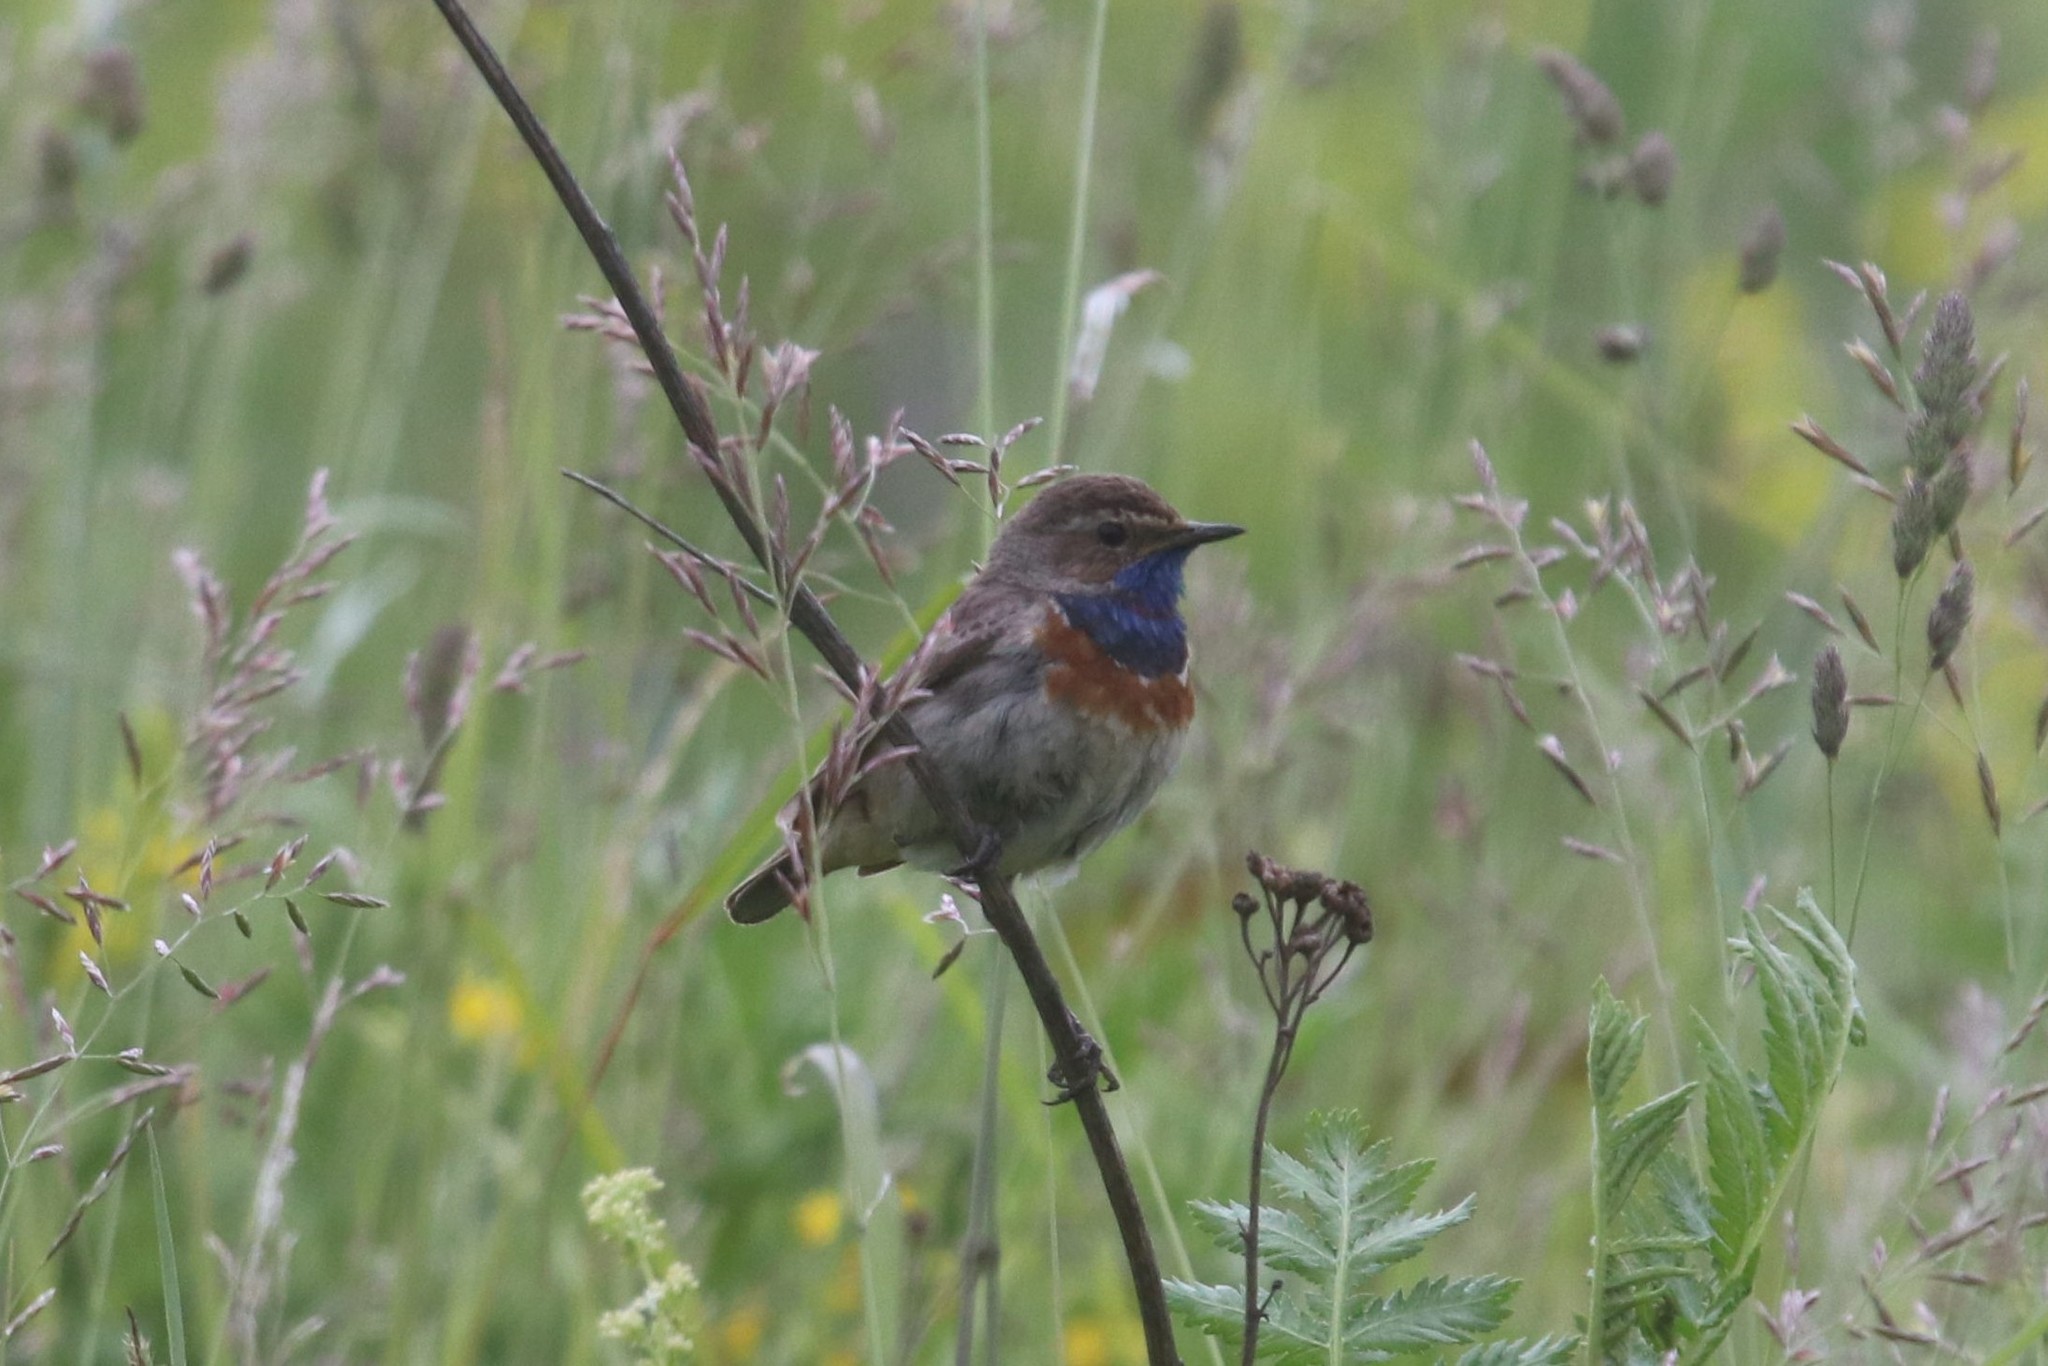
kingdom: Animalia
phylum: Chordata
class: Aves
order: Passeriformes
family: Muscicapidae
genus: Luscinia
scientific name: Luscinia svecica
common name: Bluethroat
